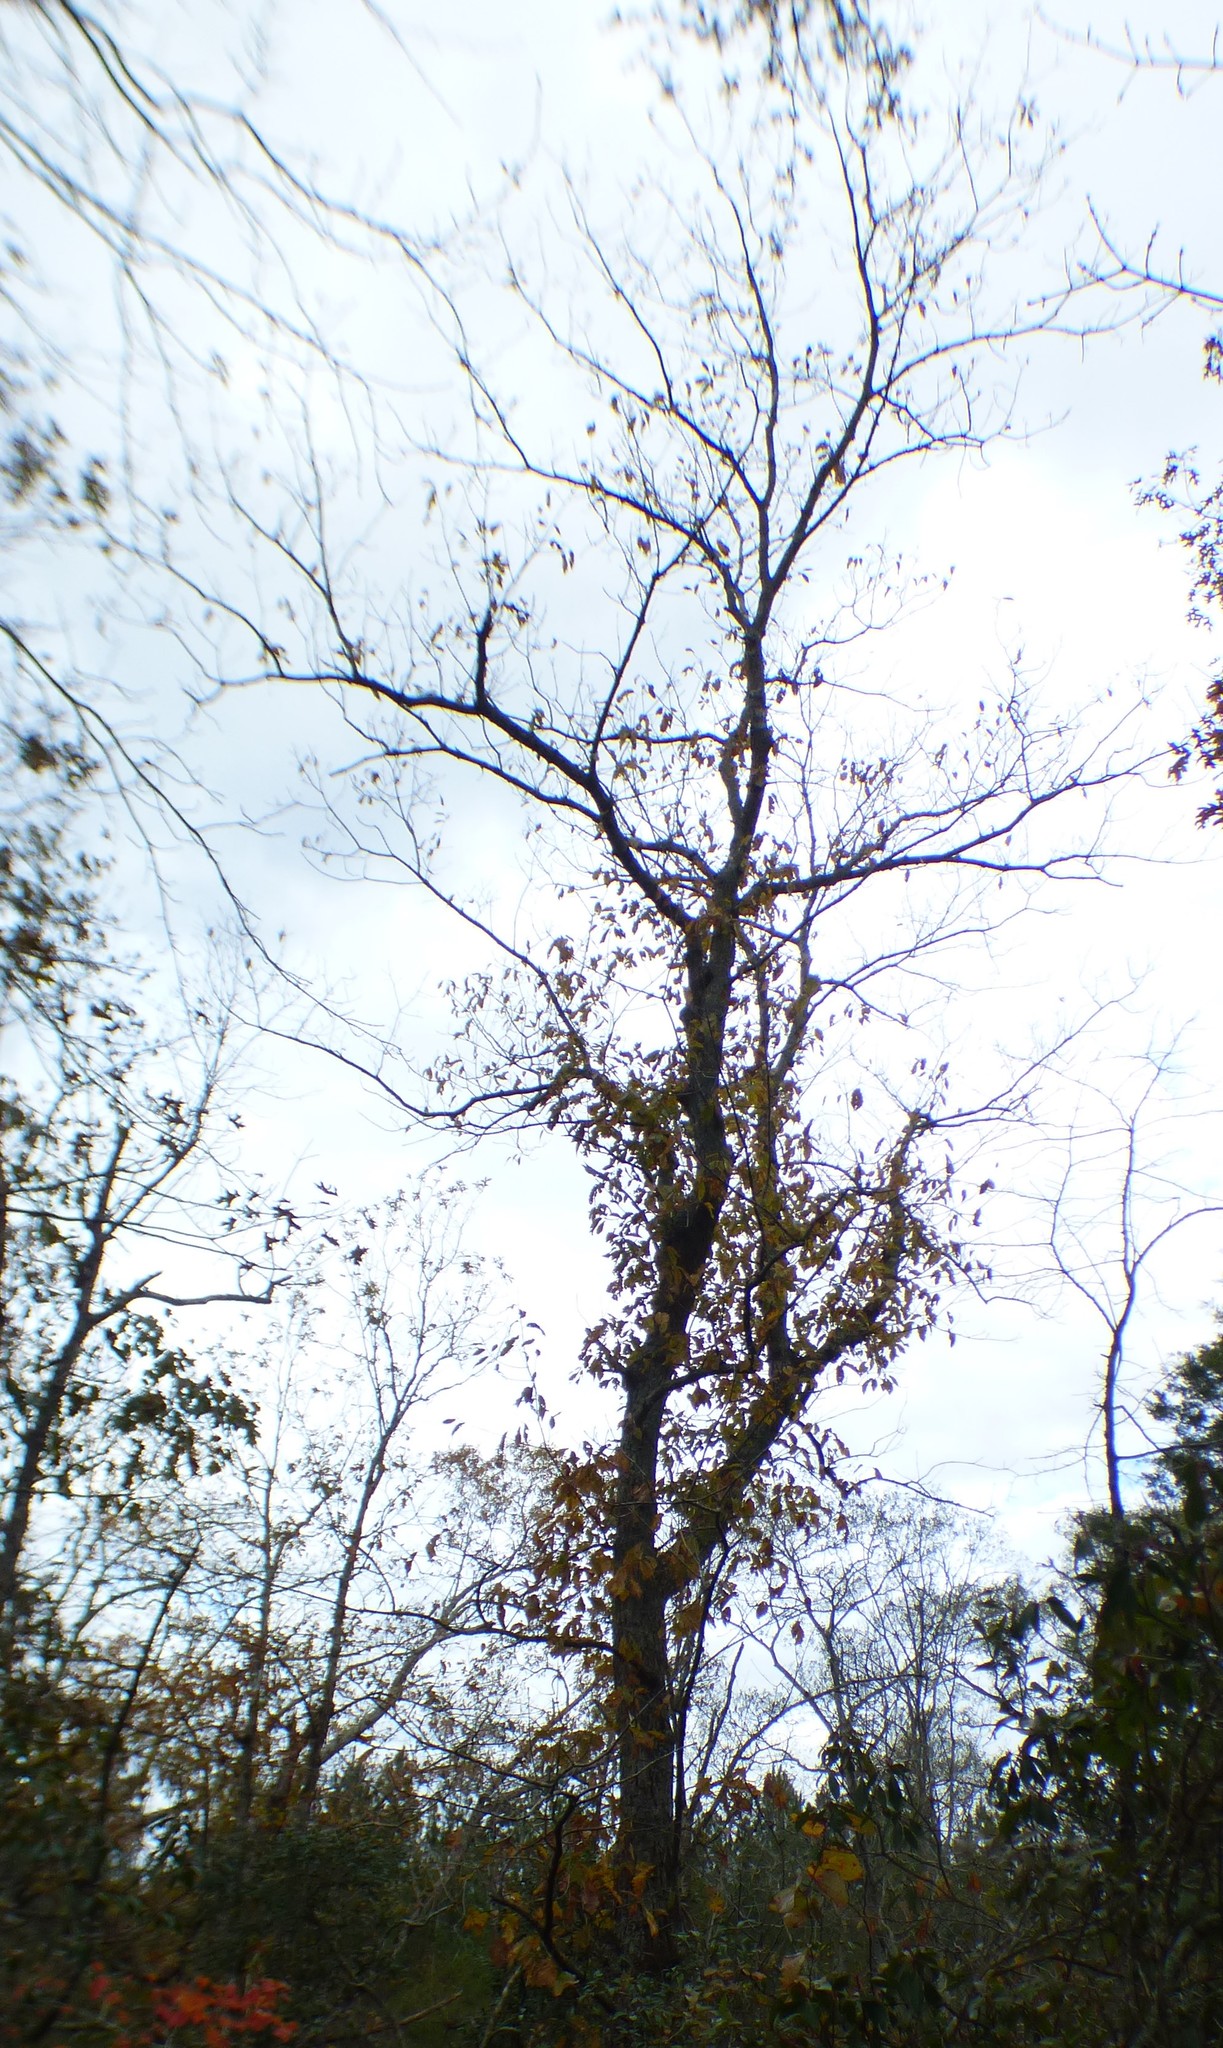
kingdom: Plantae
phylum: Tracheophyta
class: Magnoliopsida
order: Fagales
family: Fagaceae
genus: Quercus
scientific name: Quercus montana
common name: Chestnut oak
